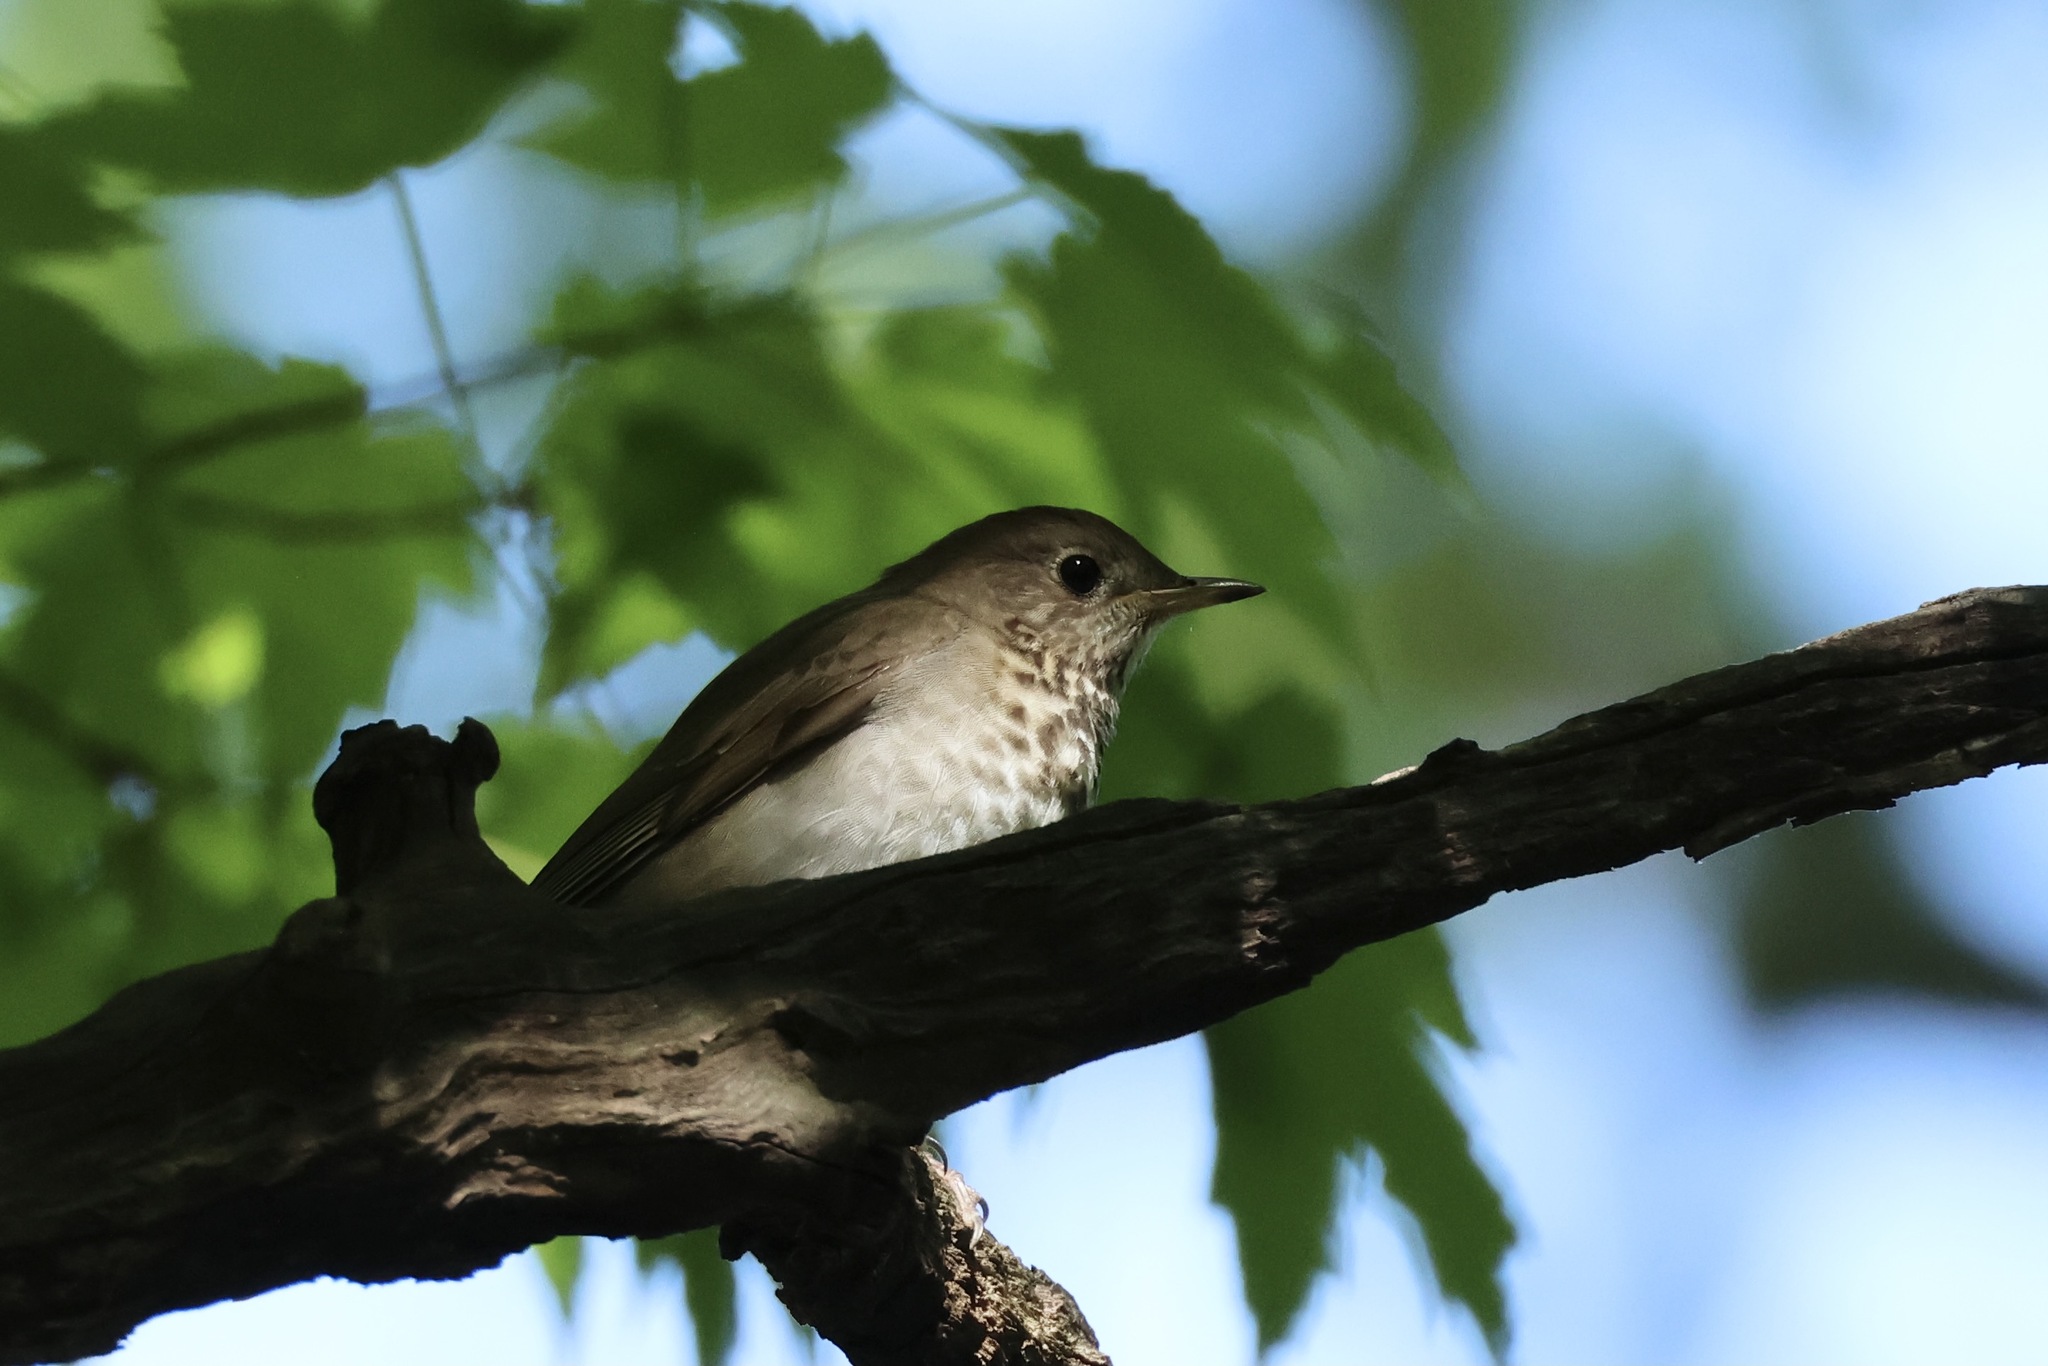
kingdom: Animalia
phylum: Chordata
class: Aves
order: Passeriformes
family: Turdidae
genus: Catharus
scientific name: Catharus minimus
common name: Grey-cheeked thrush
